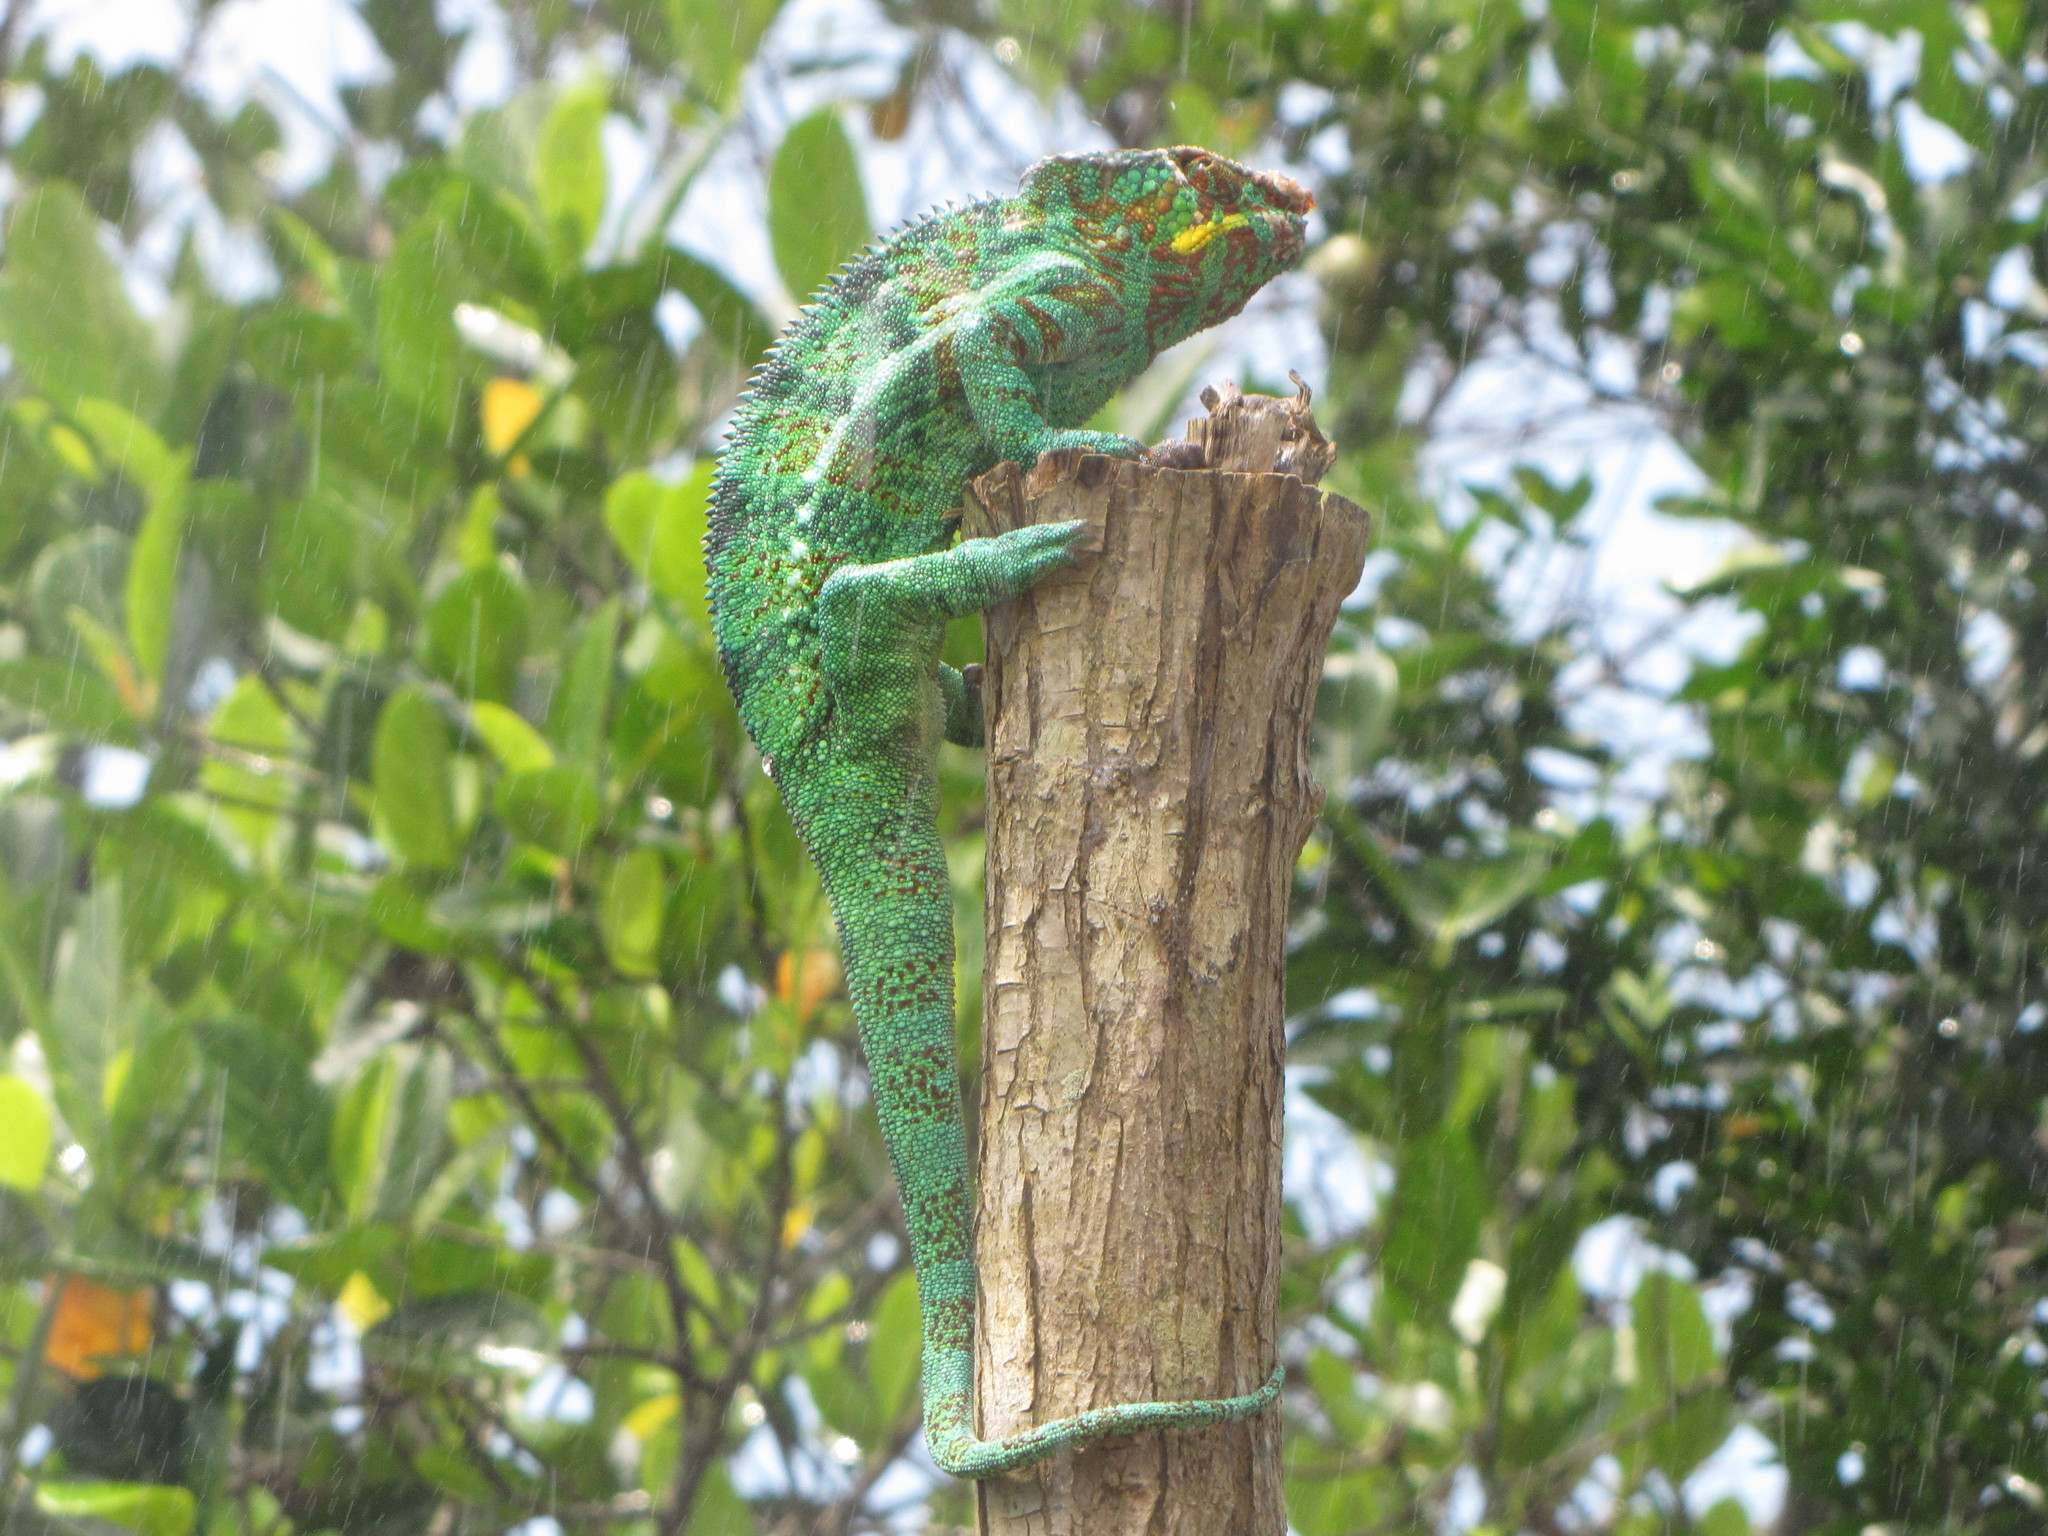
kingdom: Animalia
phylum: Chordata
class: Squamata
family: Chamaeleonidae
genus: Furcifer
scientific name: Furcifer pardalis
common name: Panther chameleon
